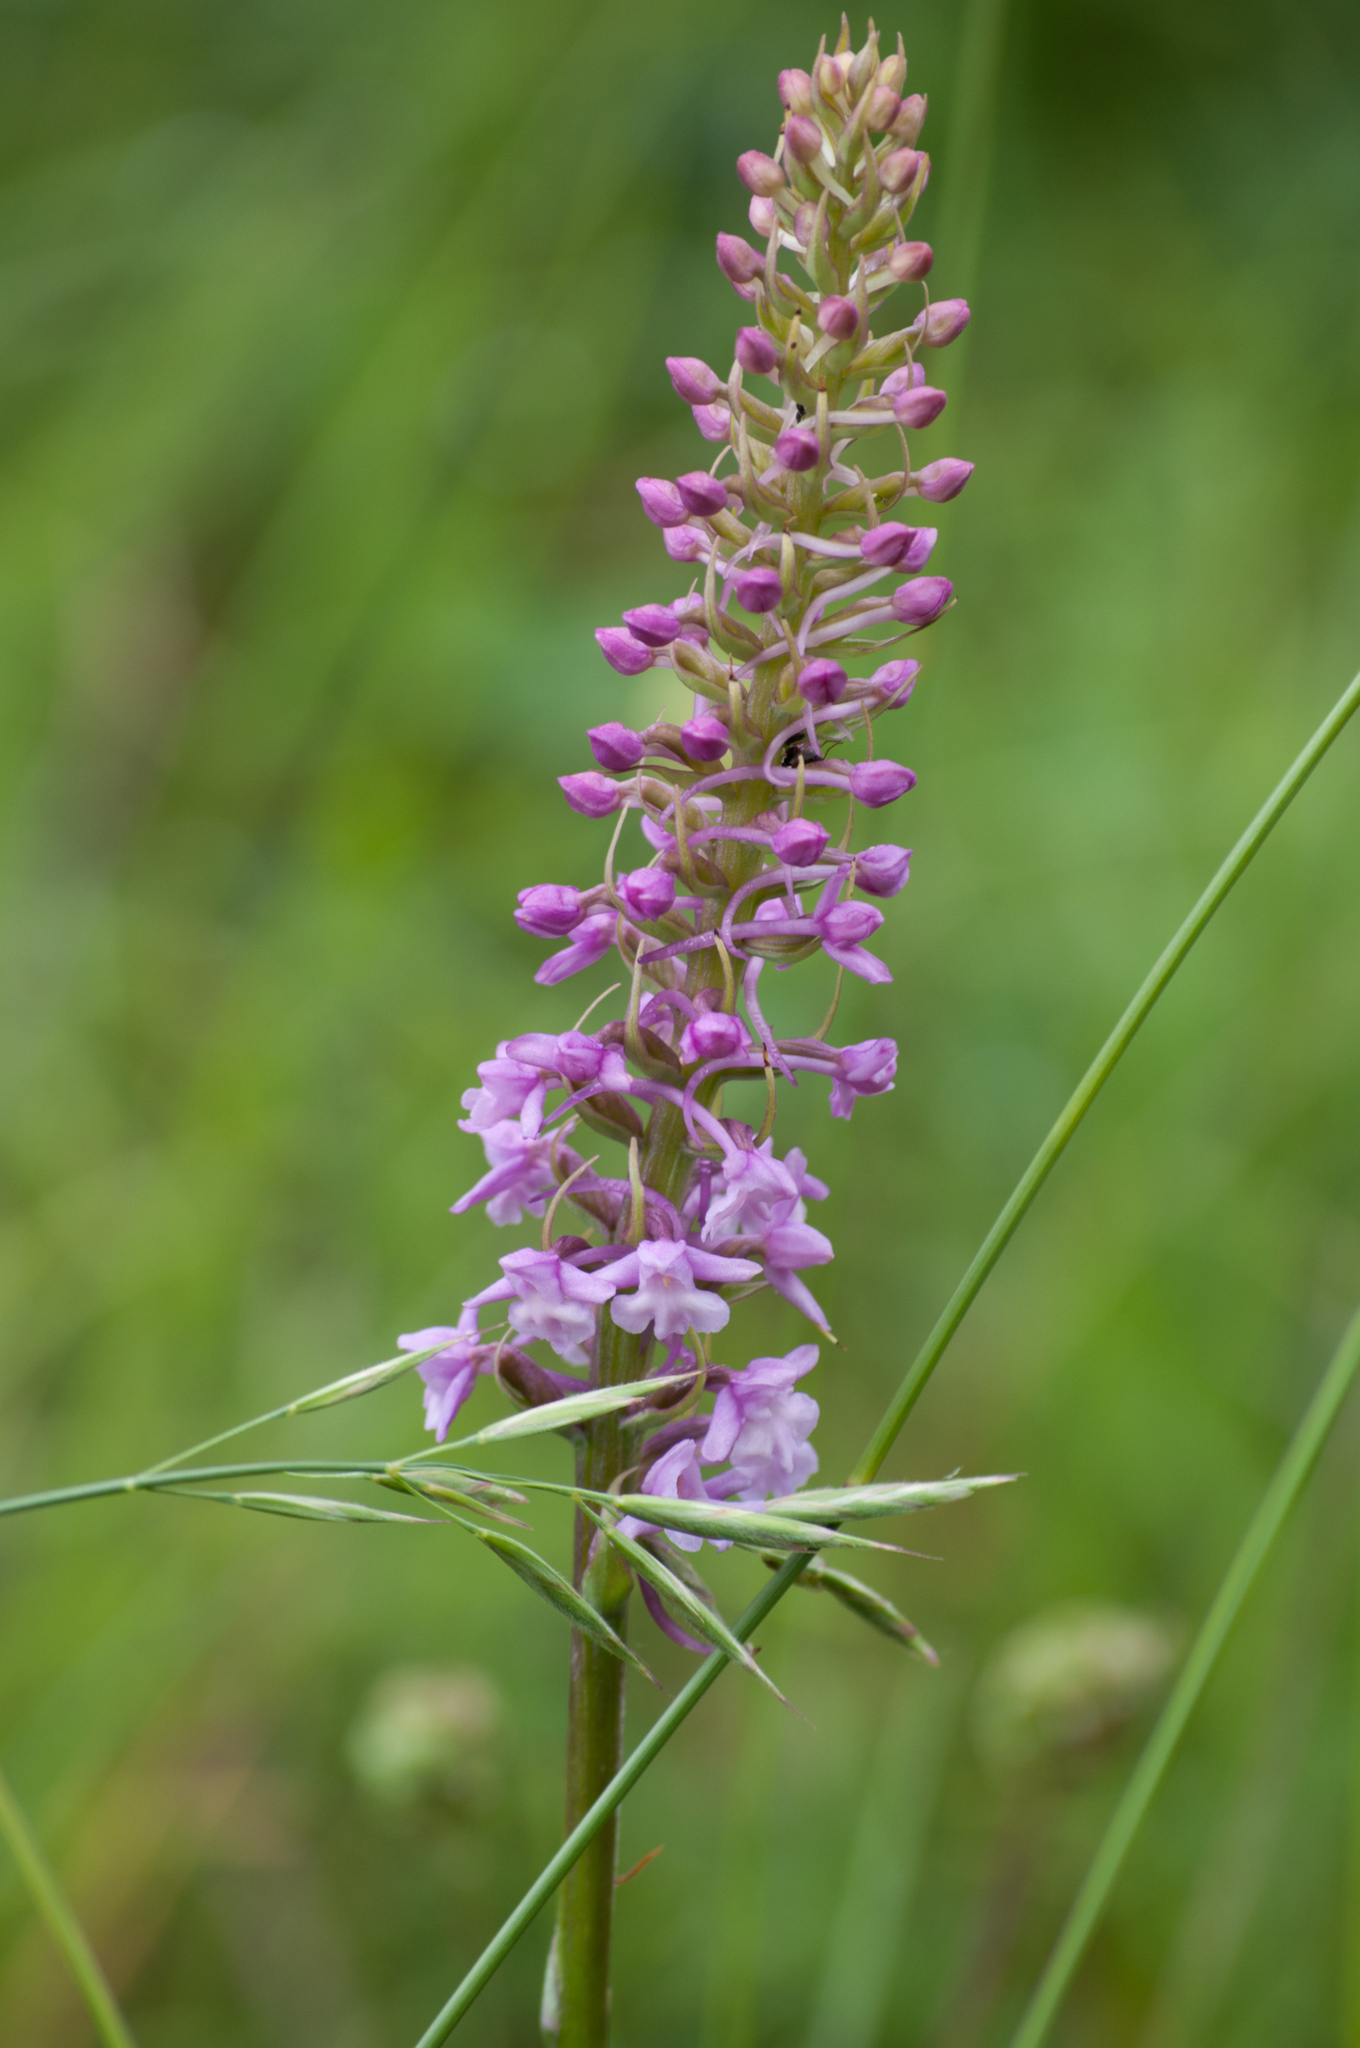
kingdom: Plantae
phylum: Tracheophyta
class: Liliopsida
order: Asparagales
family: Orchidaceae
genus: Gymnadenia
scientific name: Gymnadenia conopsea
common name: Fragrant orchid
